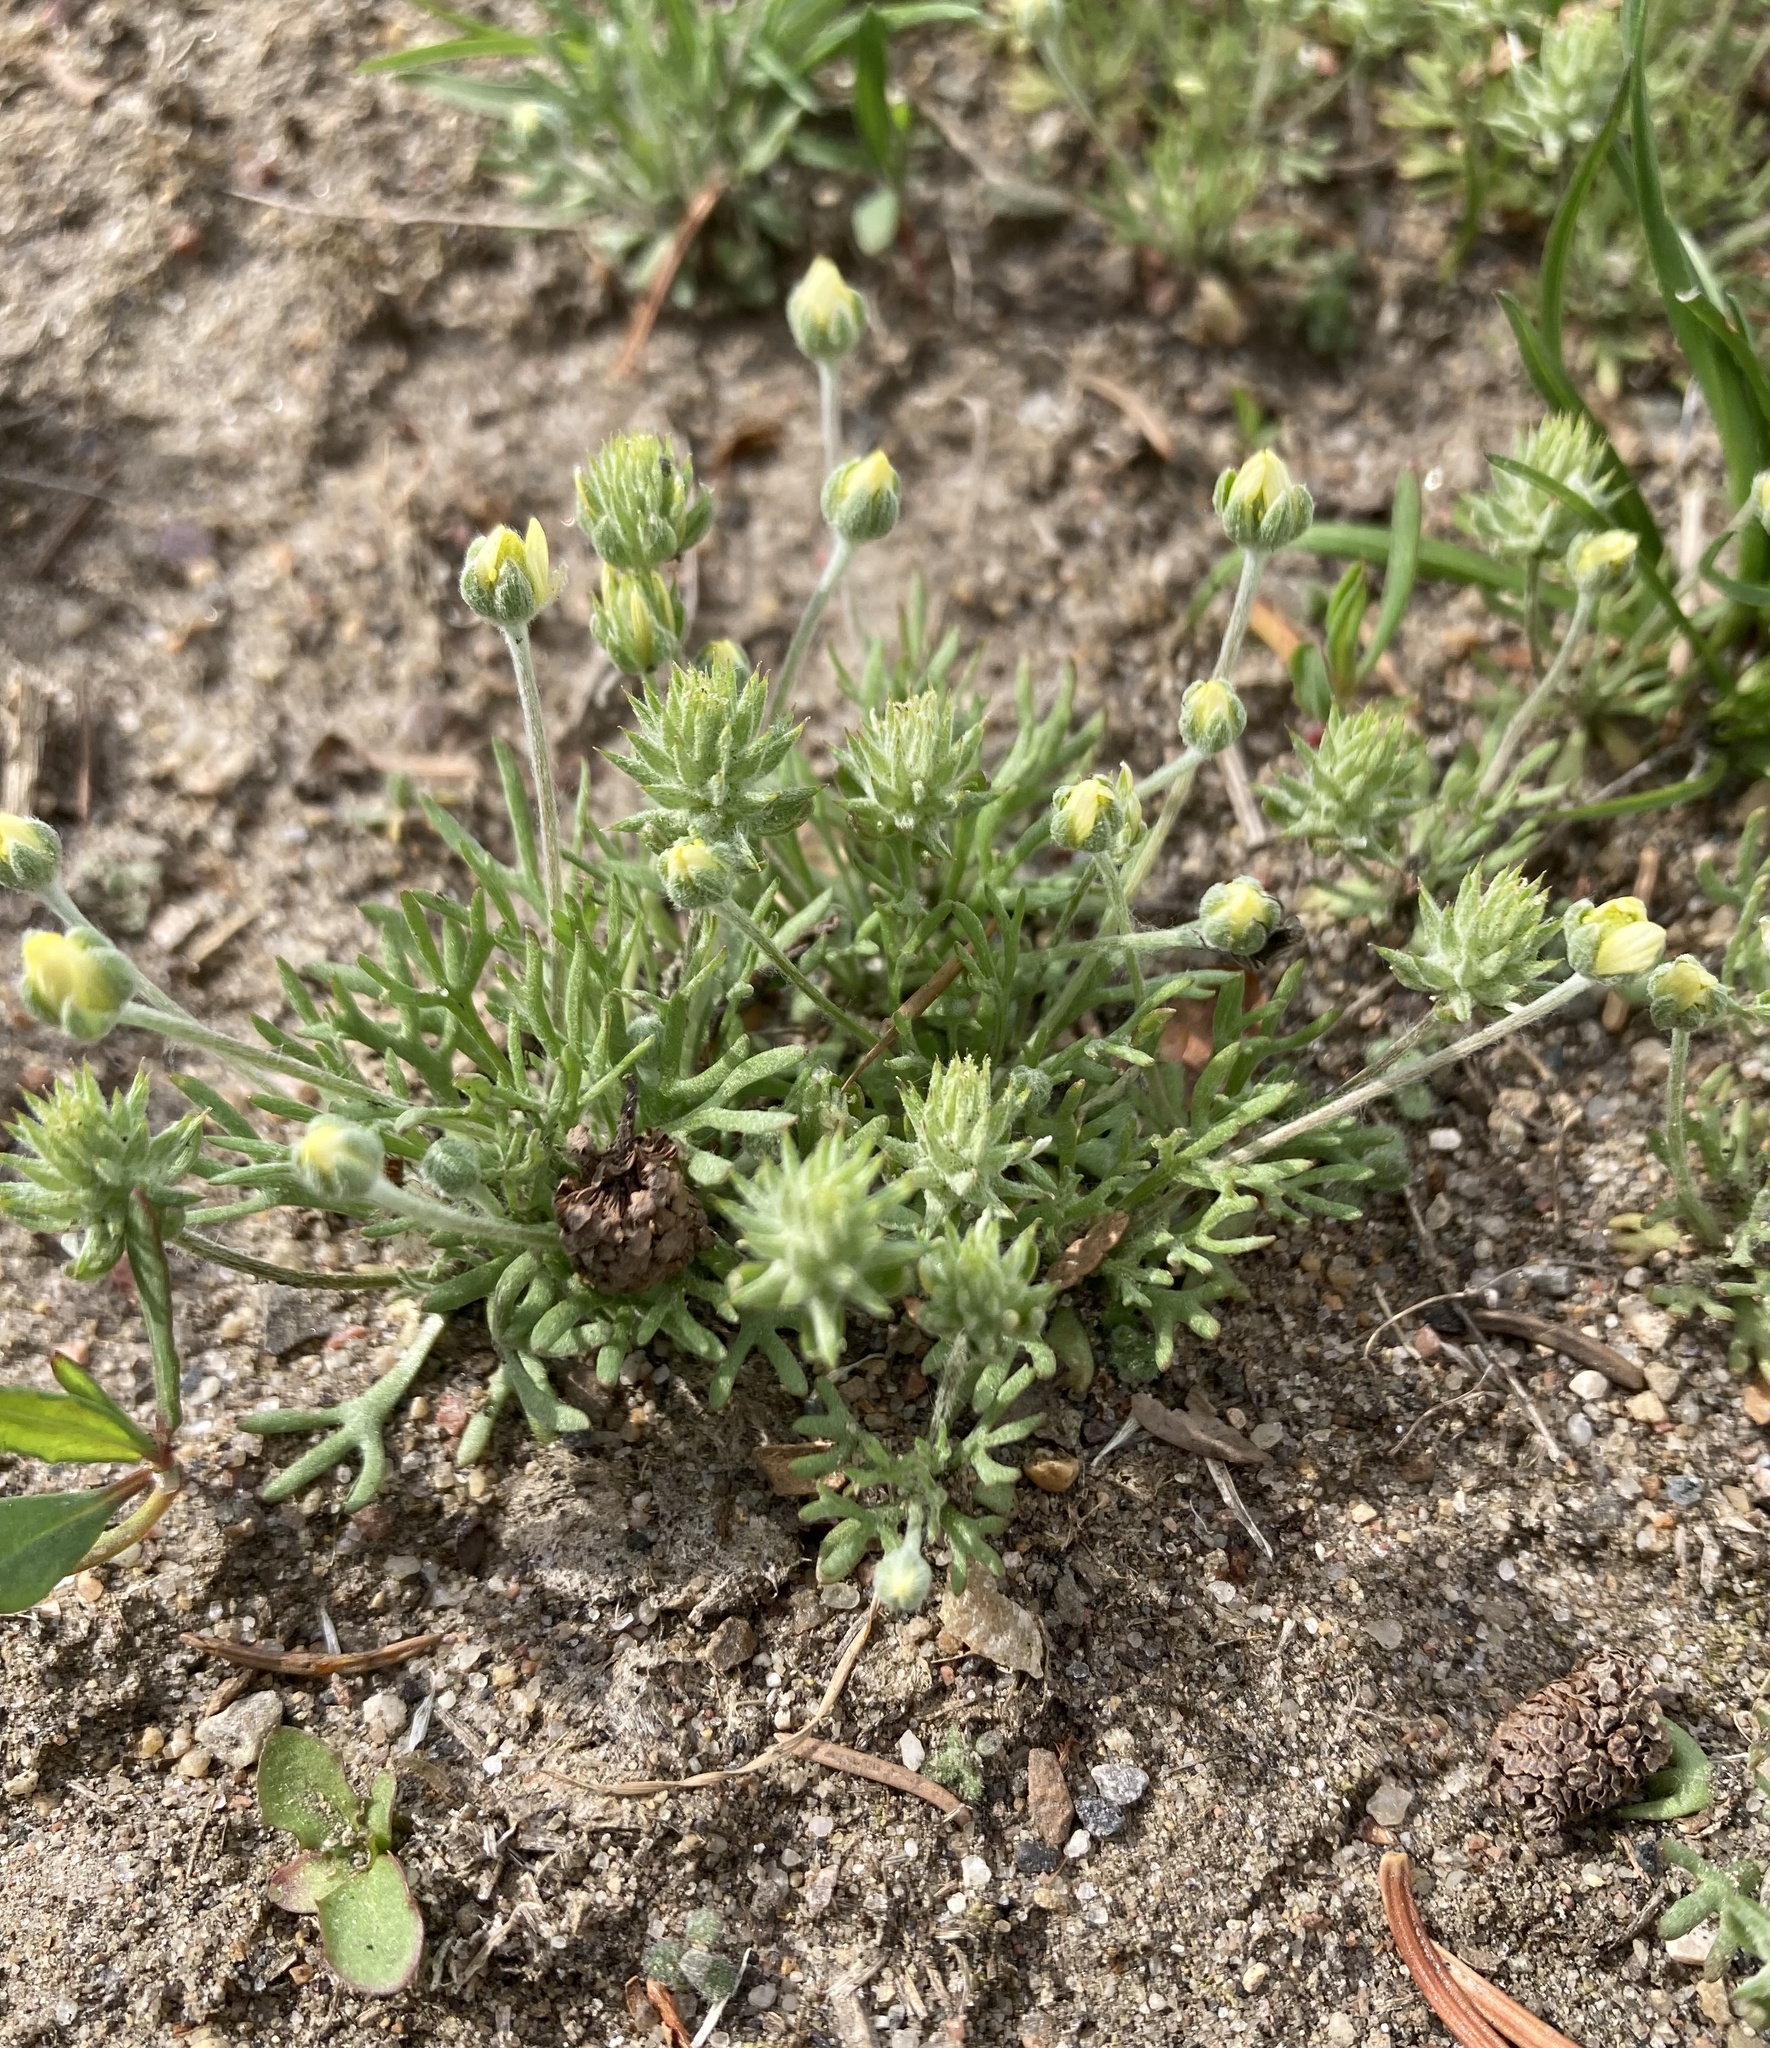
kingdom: Plantae
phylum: Tracheophyta
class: Magnoliopsida
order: Ranunculales
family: Ranunculaceae
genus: Ceratocephala
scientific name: Ceratocephala orthoceras
